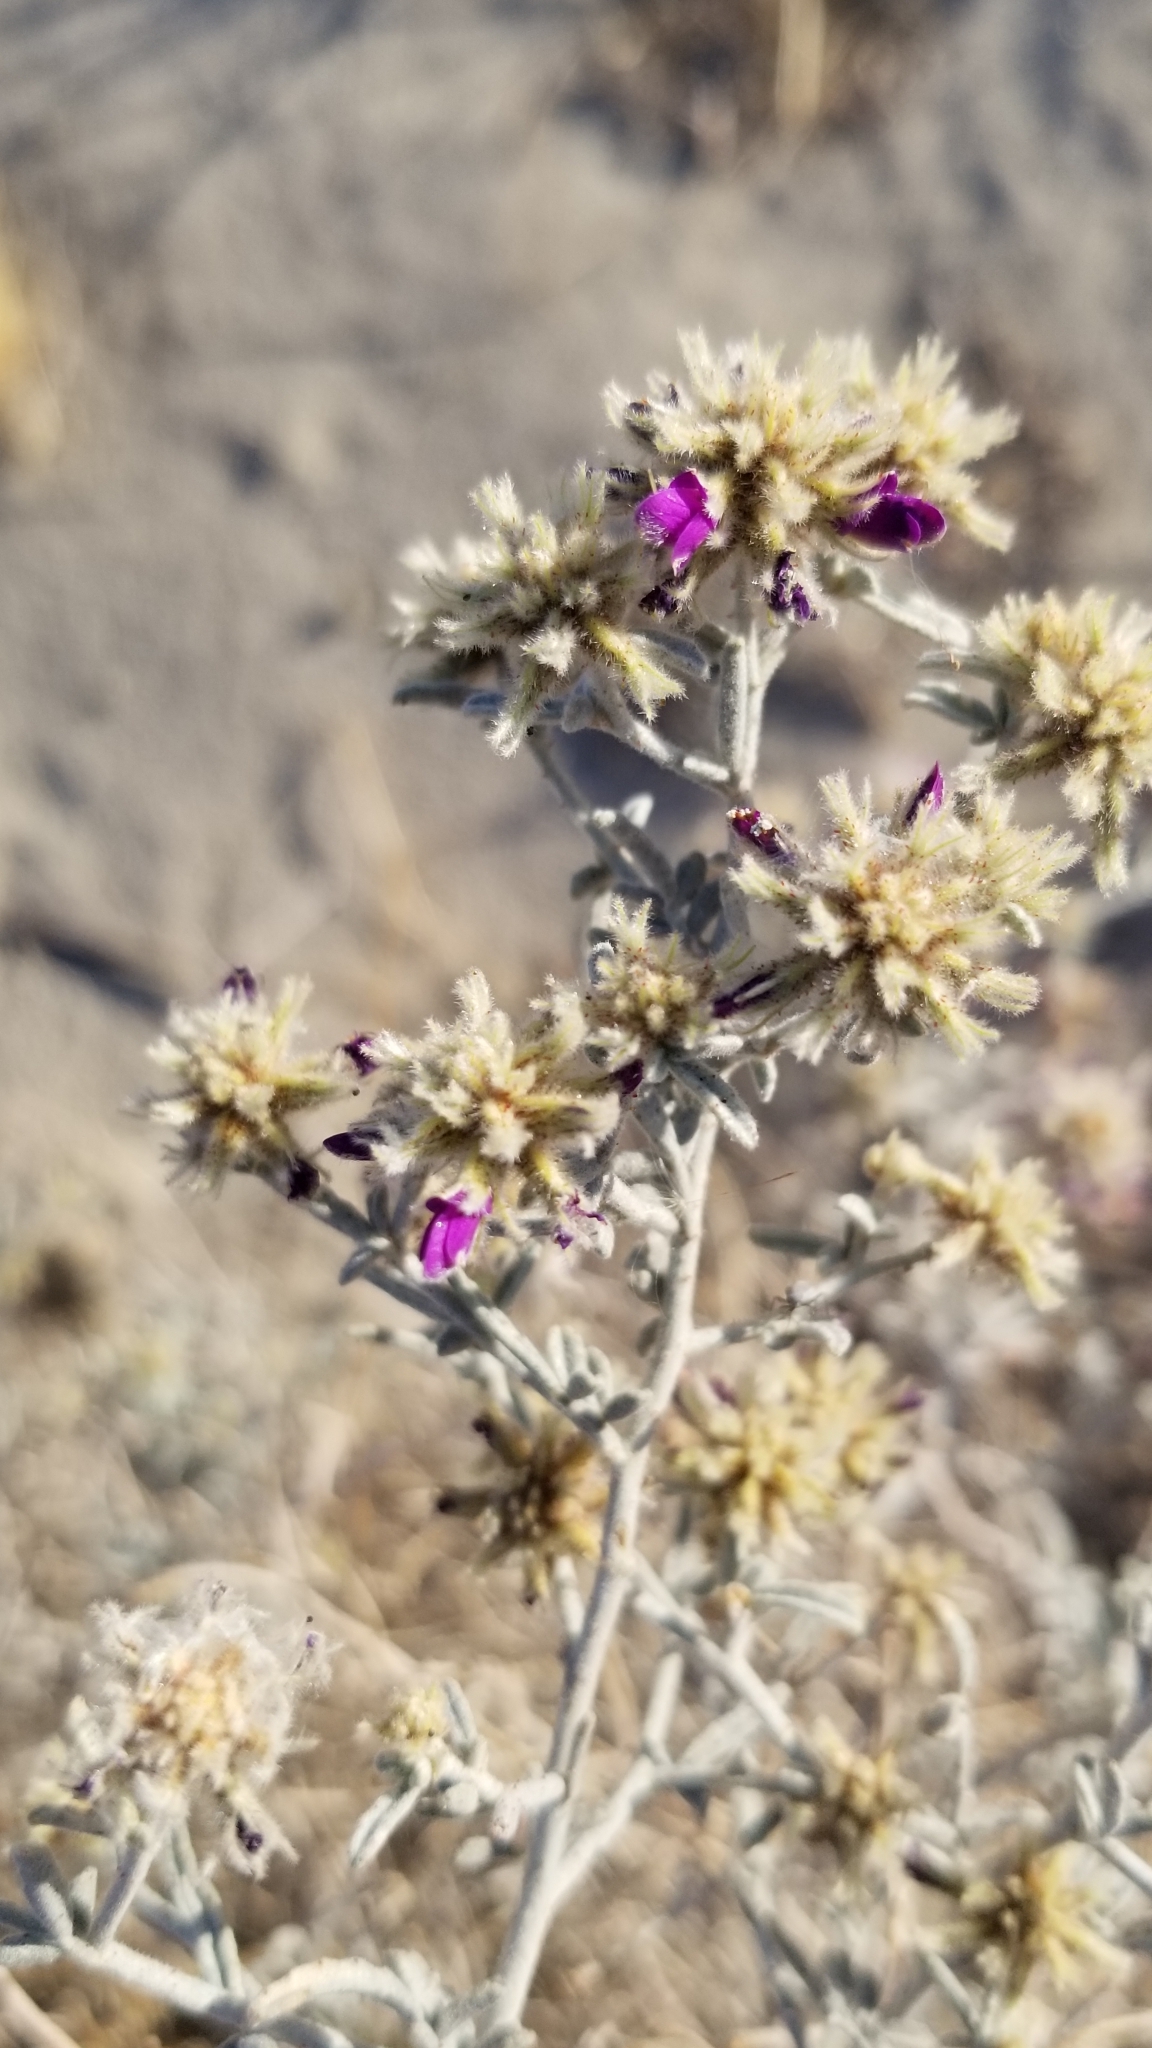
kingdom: Plantae
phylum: Tracheophyta
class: Magnoliopsida
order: Fabales
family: Fabaceae
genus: Psorothamnus
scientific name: Psorothamnus emoryi
